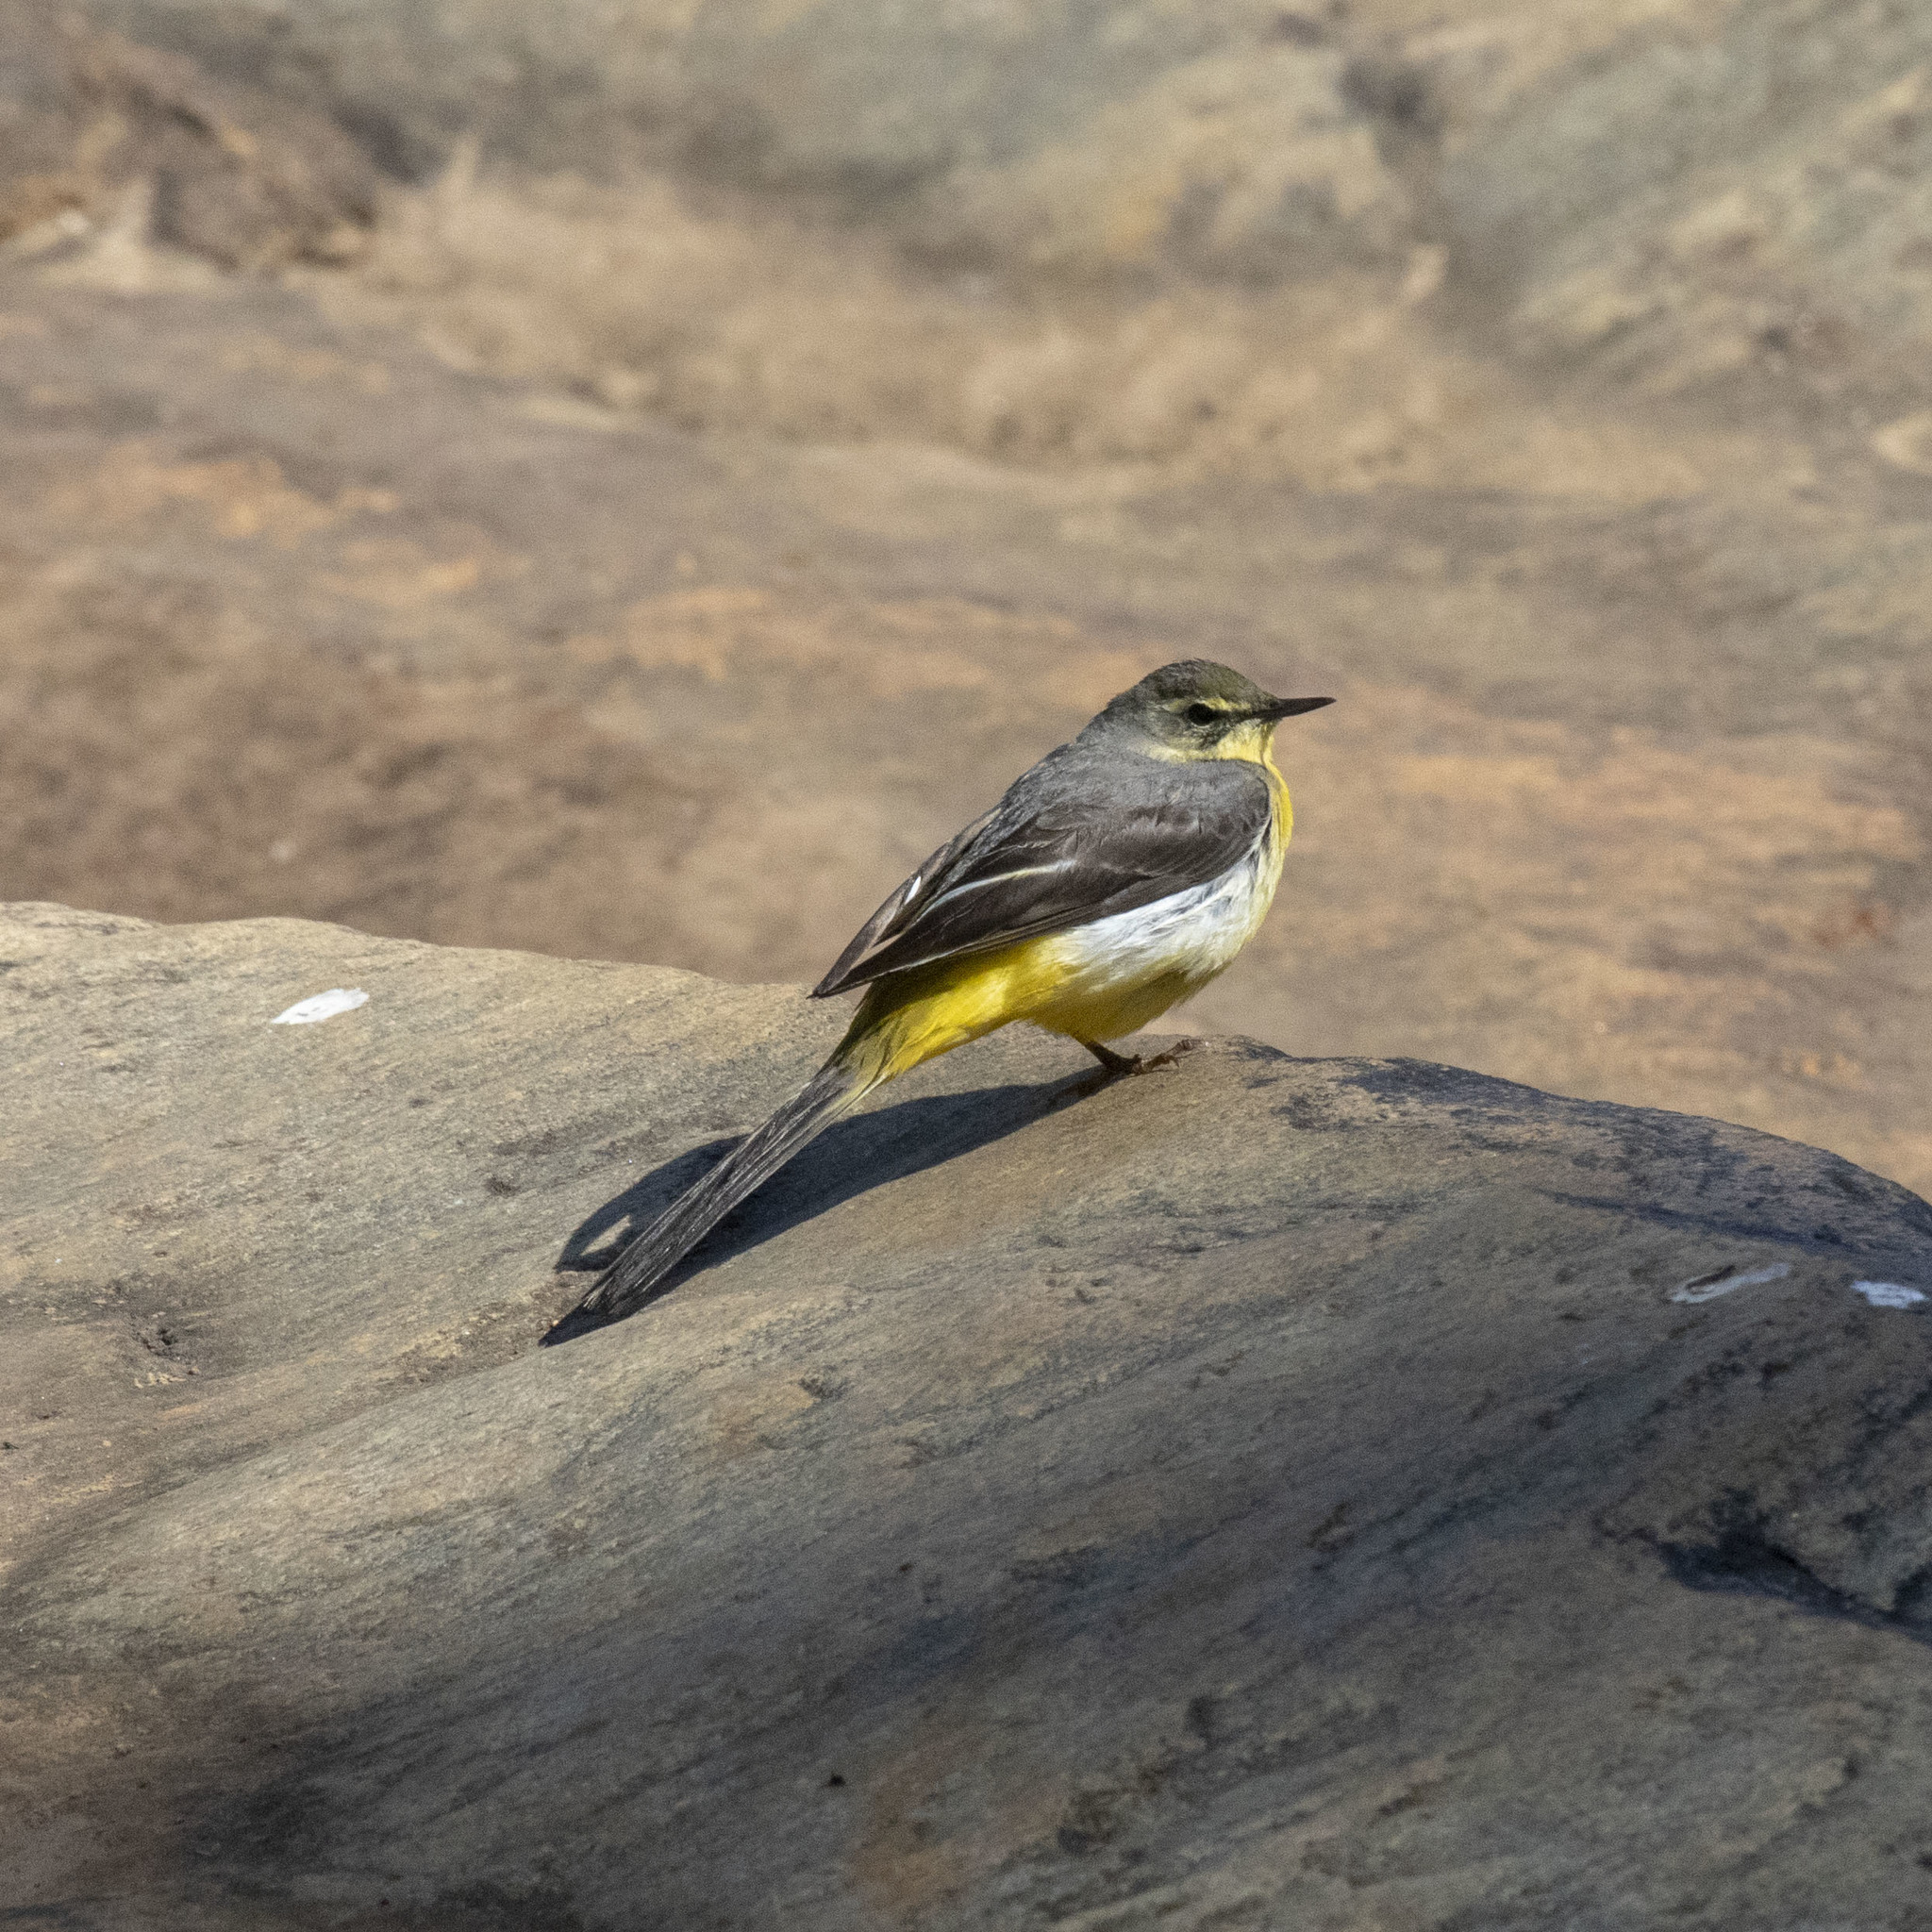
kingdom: Animalia
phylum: Chordata
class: Aves
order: Passeriformes
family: Motacillidae
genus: Motacilla
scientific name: Motacilla cinerea
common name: Grey wagtail
